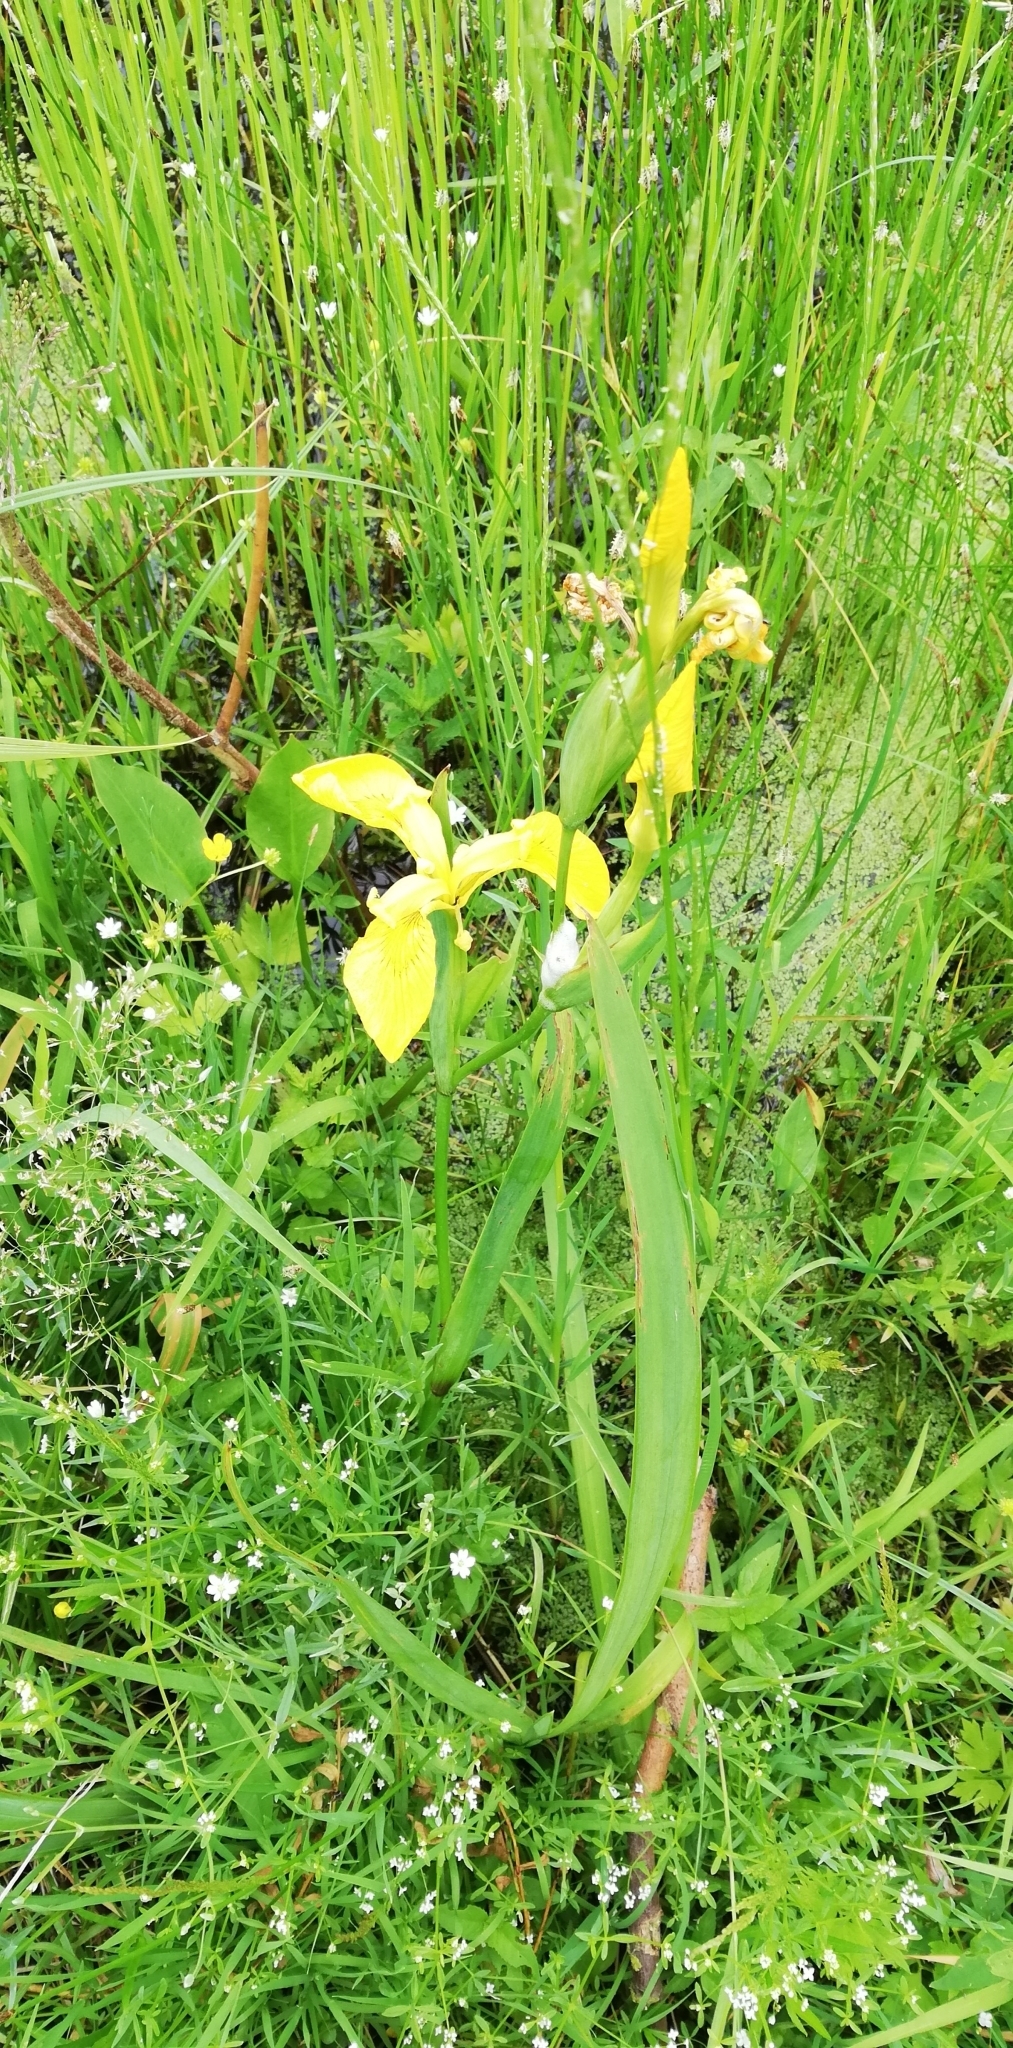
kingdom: Plantae
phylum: Tracheophyta
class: Liliopsida
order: Asparagales
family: Iridaceae
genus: Iris
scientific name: Iris pseudacorus
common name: Yellow flag
